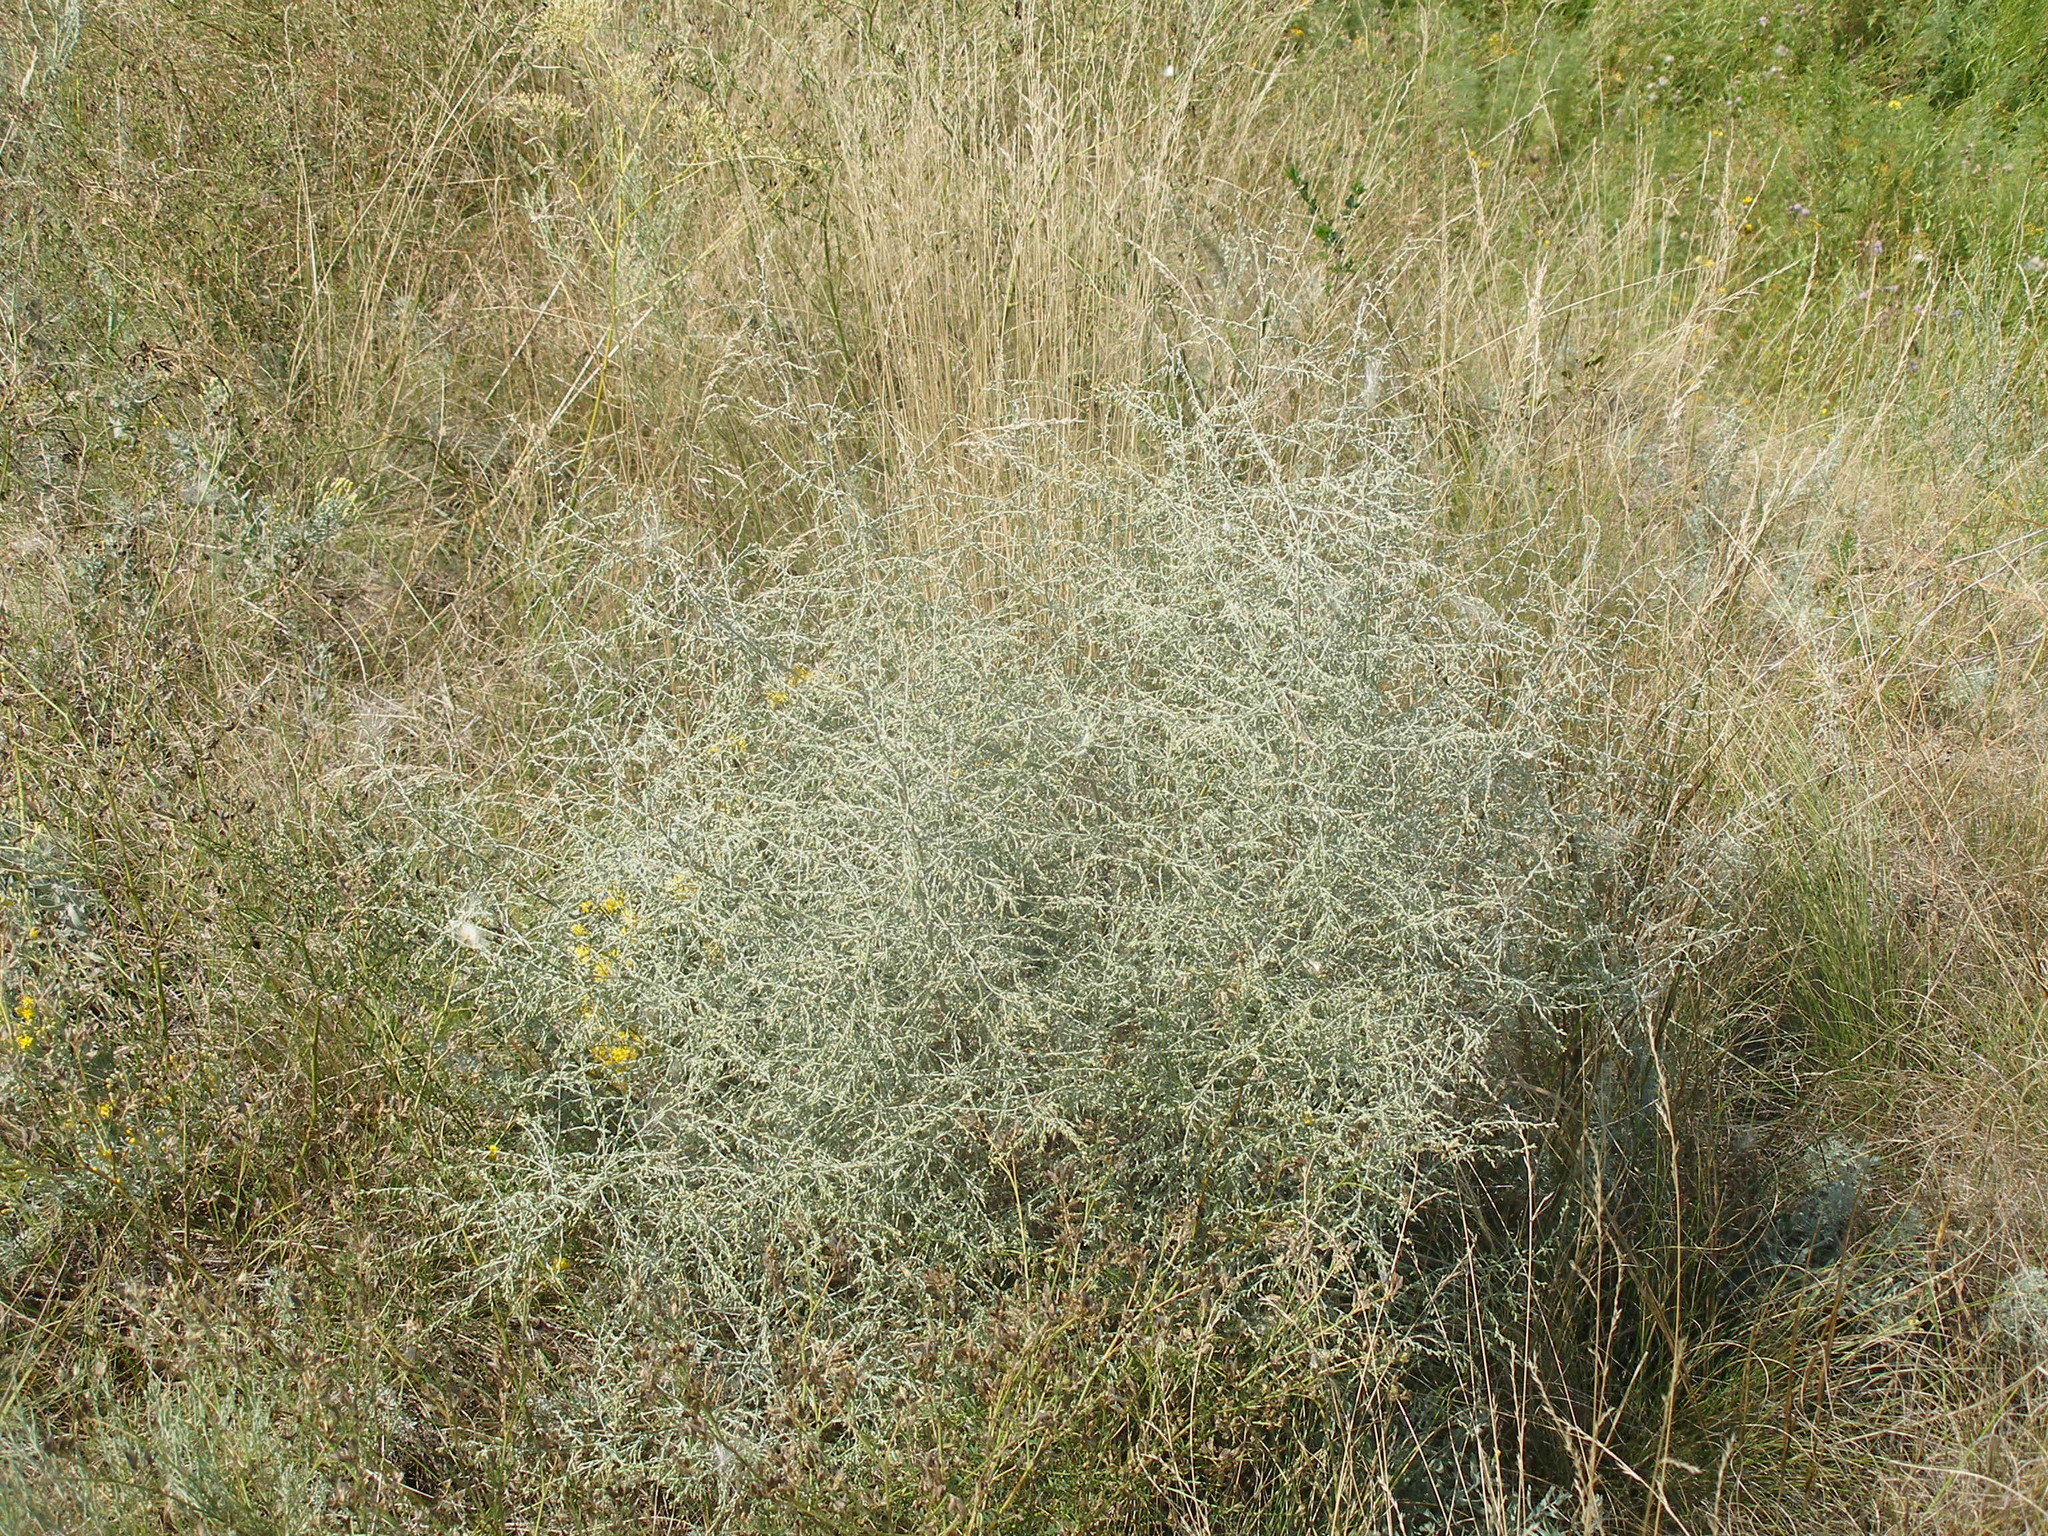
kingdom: Plantae
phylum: Tracheophyta
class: Magnoliopsida
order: Asterales
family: Asteraceae
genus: Artemisia
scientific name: Artemisia santonicum
